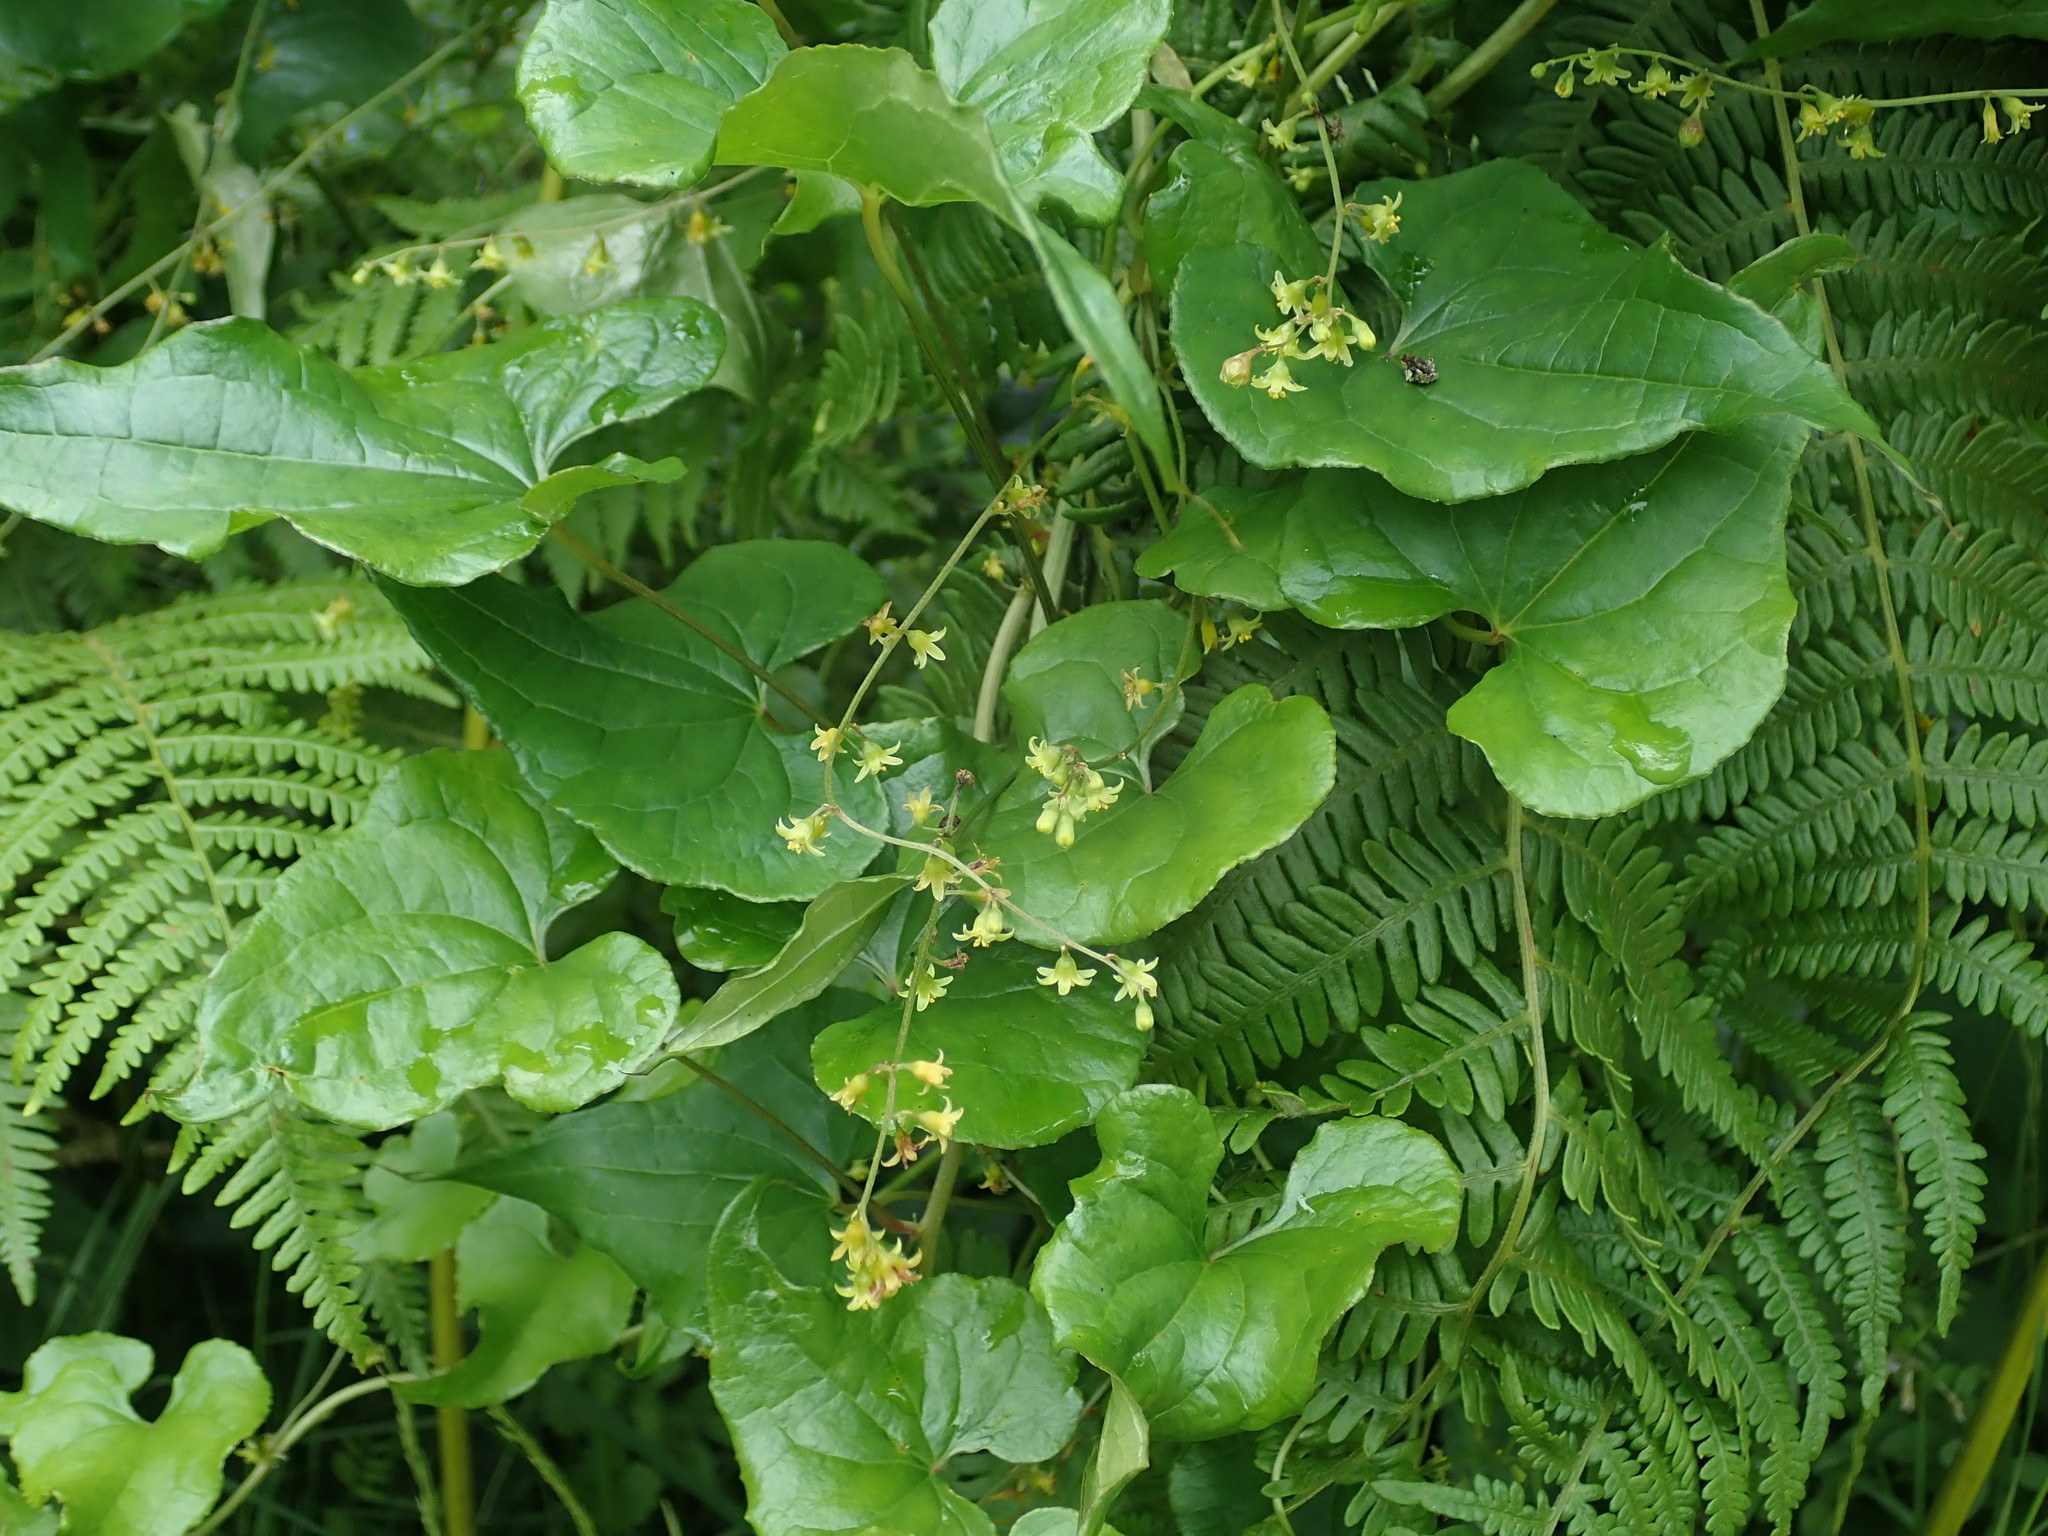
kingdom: Plantae
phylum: Tracheophyta
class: Liliopsida
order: Dioscoreales
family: Dioscoreaceae
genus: Dioscorea
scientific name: Dioscorea communis
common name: Black-bindweed
